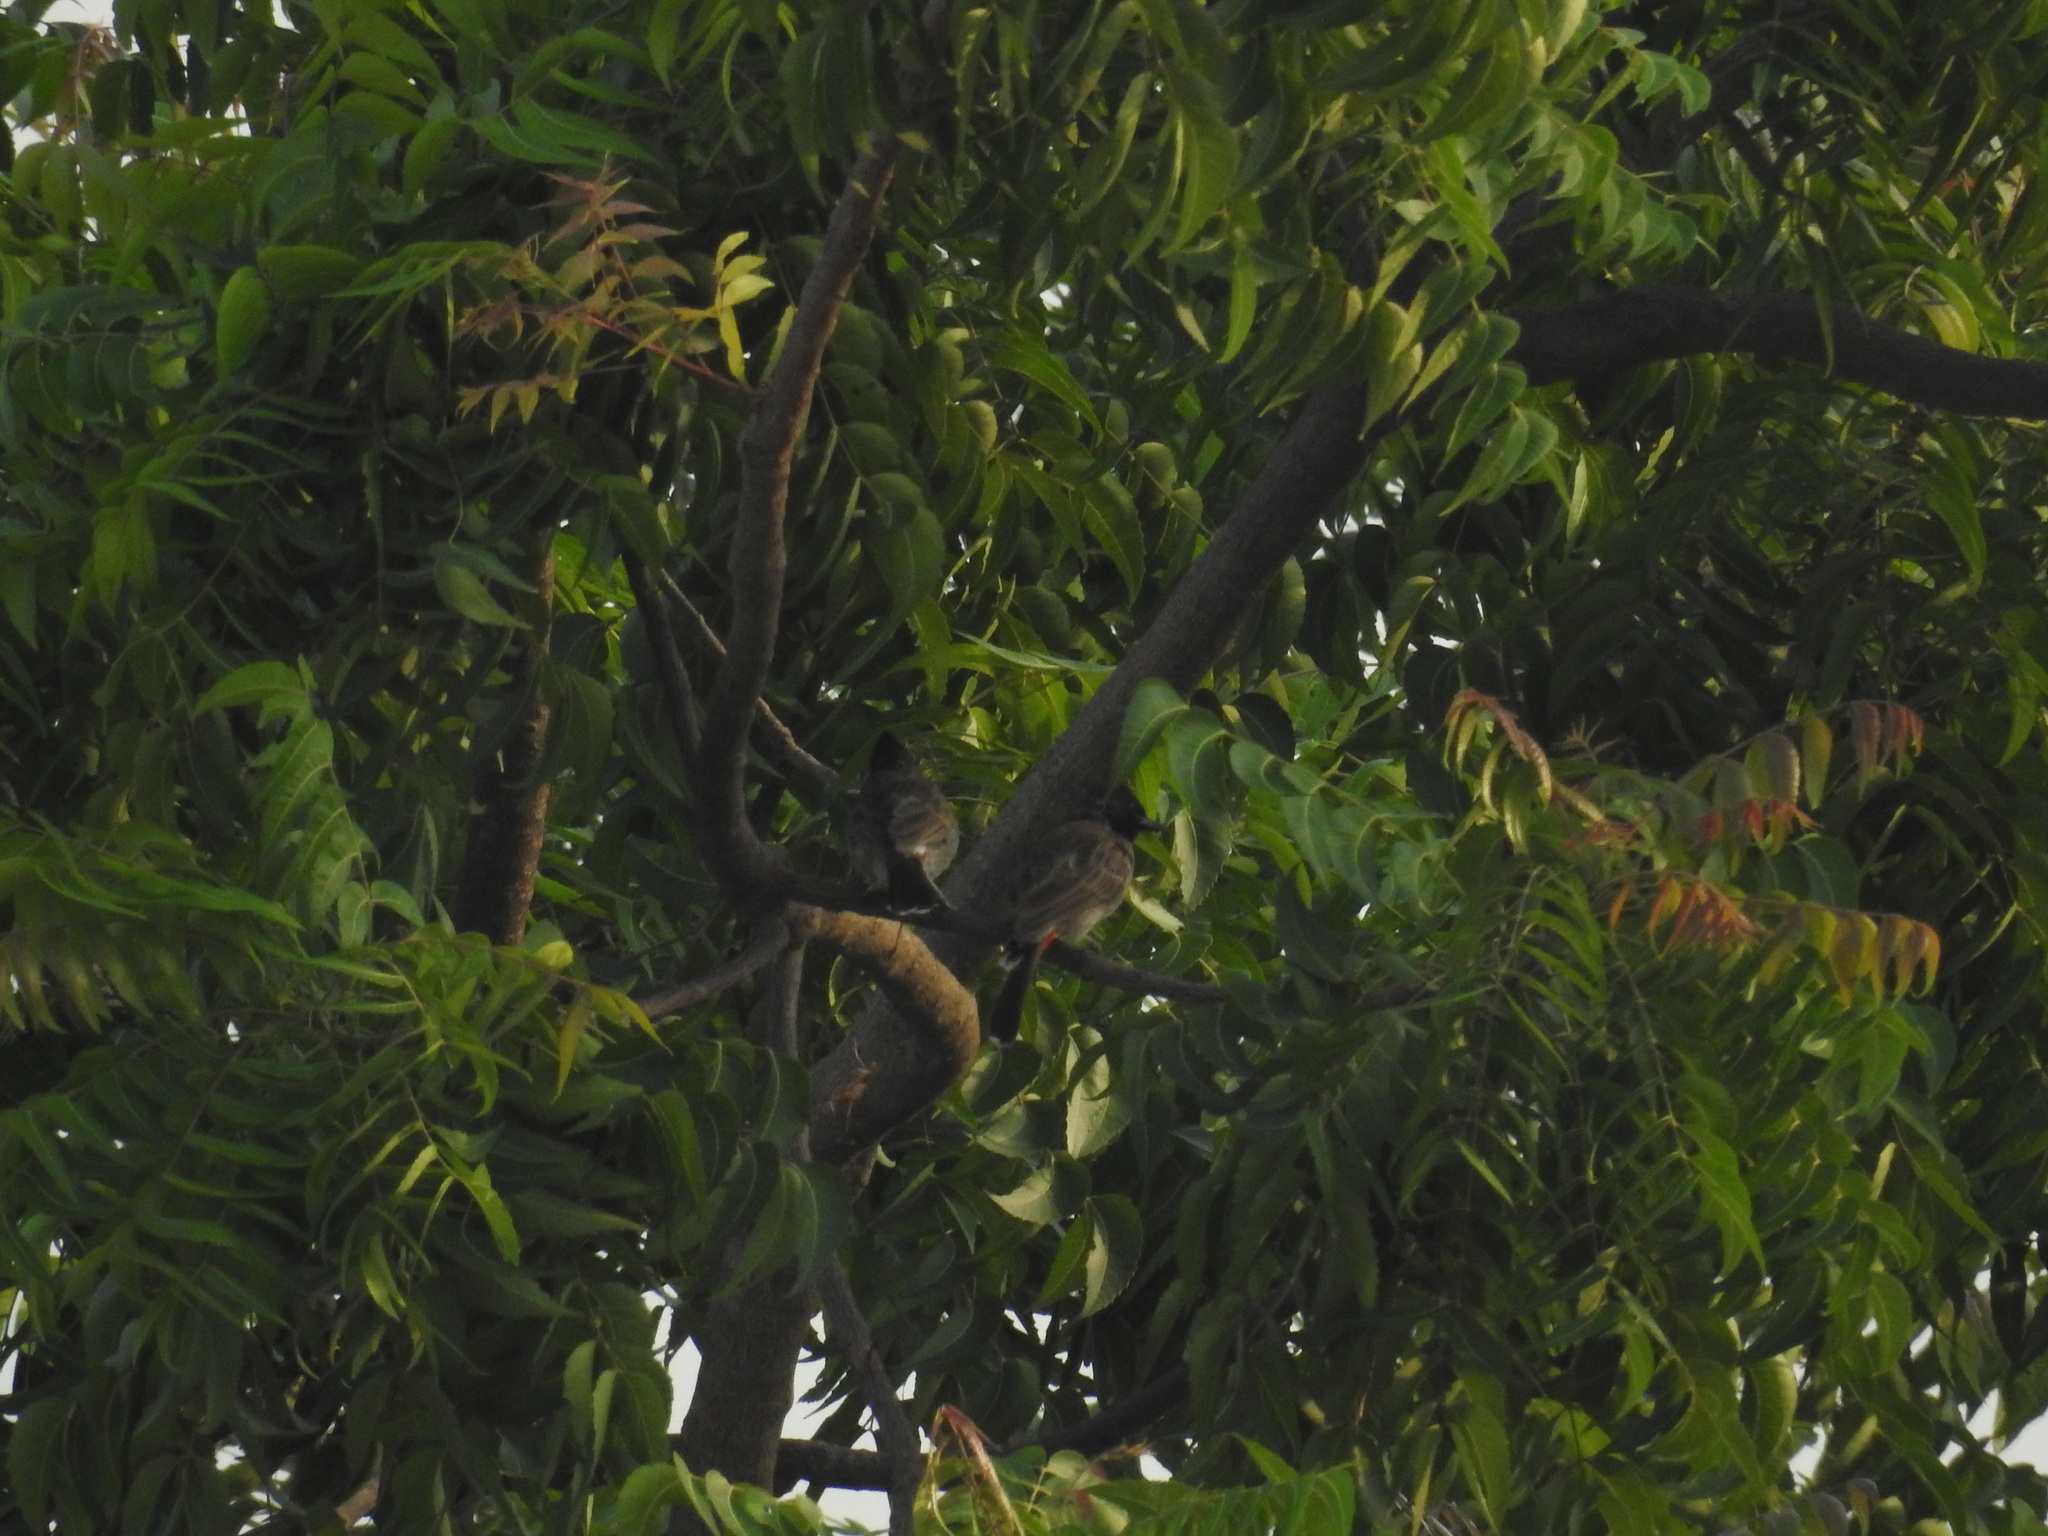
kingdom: Animalia
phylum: Chordata
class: Aves
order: Passeriformes
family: Pycnonotidae
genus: Pycnonotus
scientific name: Pycnonotus cafer
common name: Red-vented bulbul
